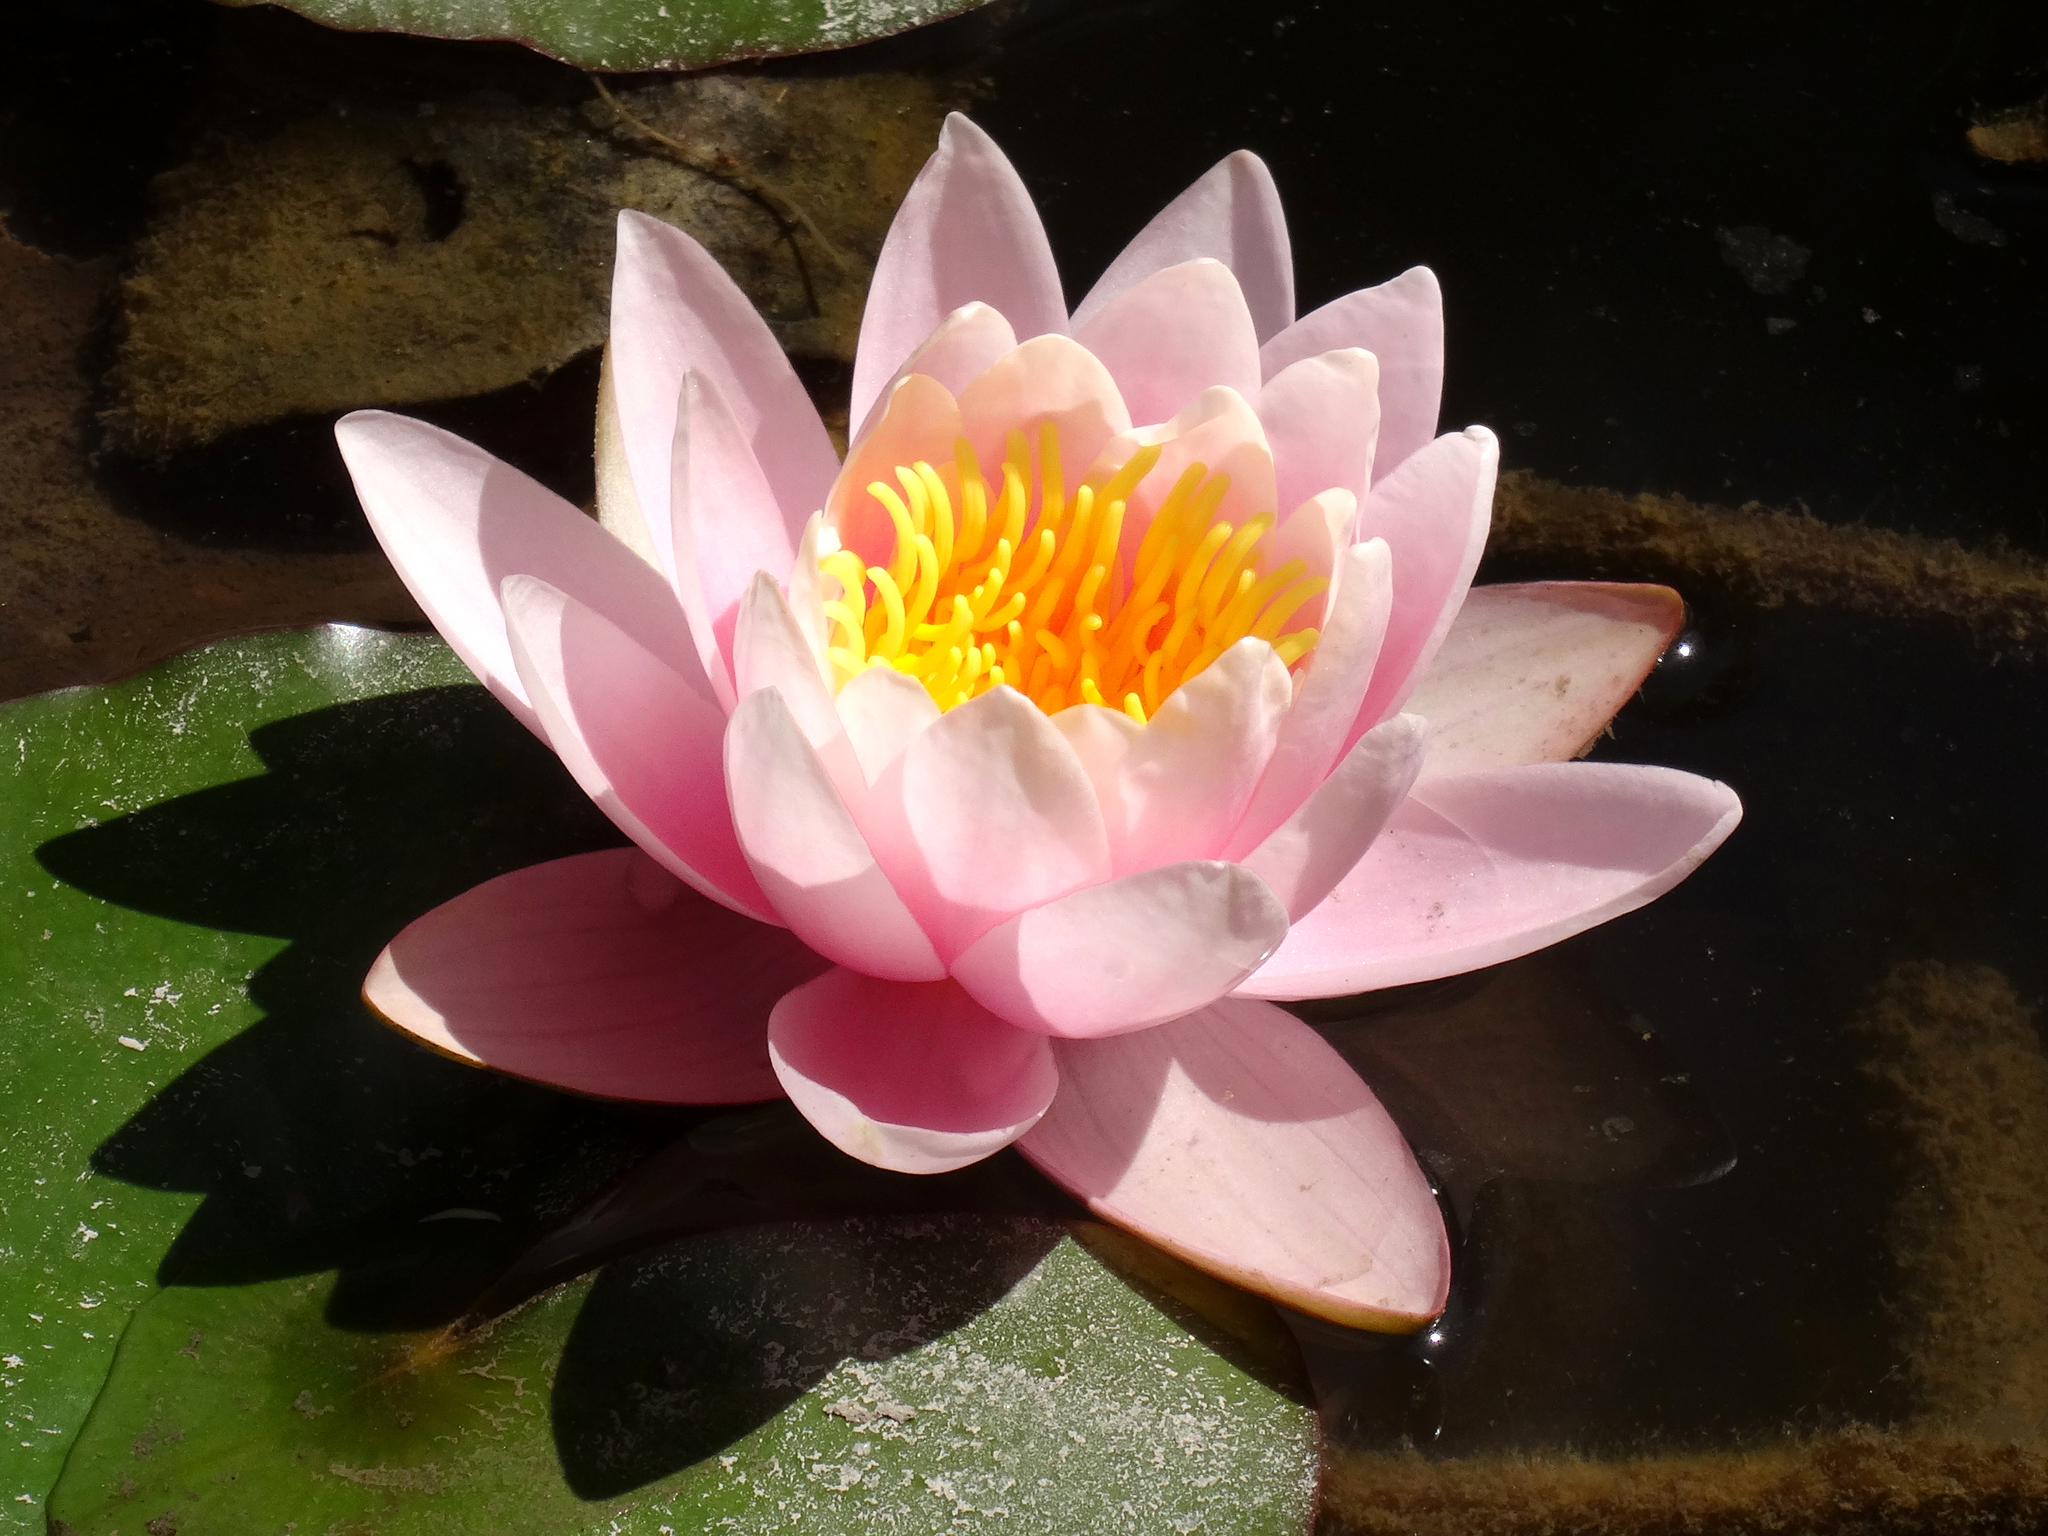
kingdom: Plantae
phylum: Tracheophyta
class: Magnoliopsida
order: Nymphaeales
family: Nymphaeaceae
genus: Nymphaea
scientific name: Nymphaea candida
